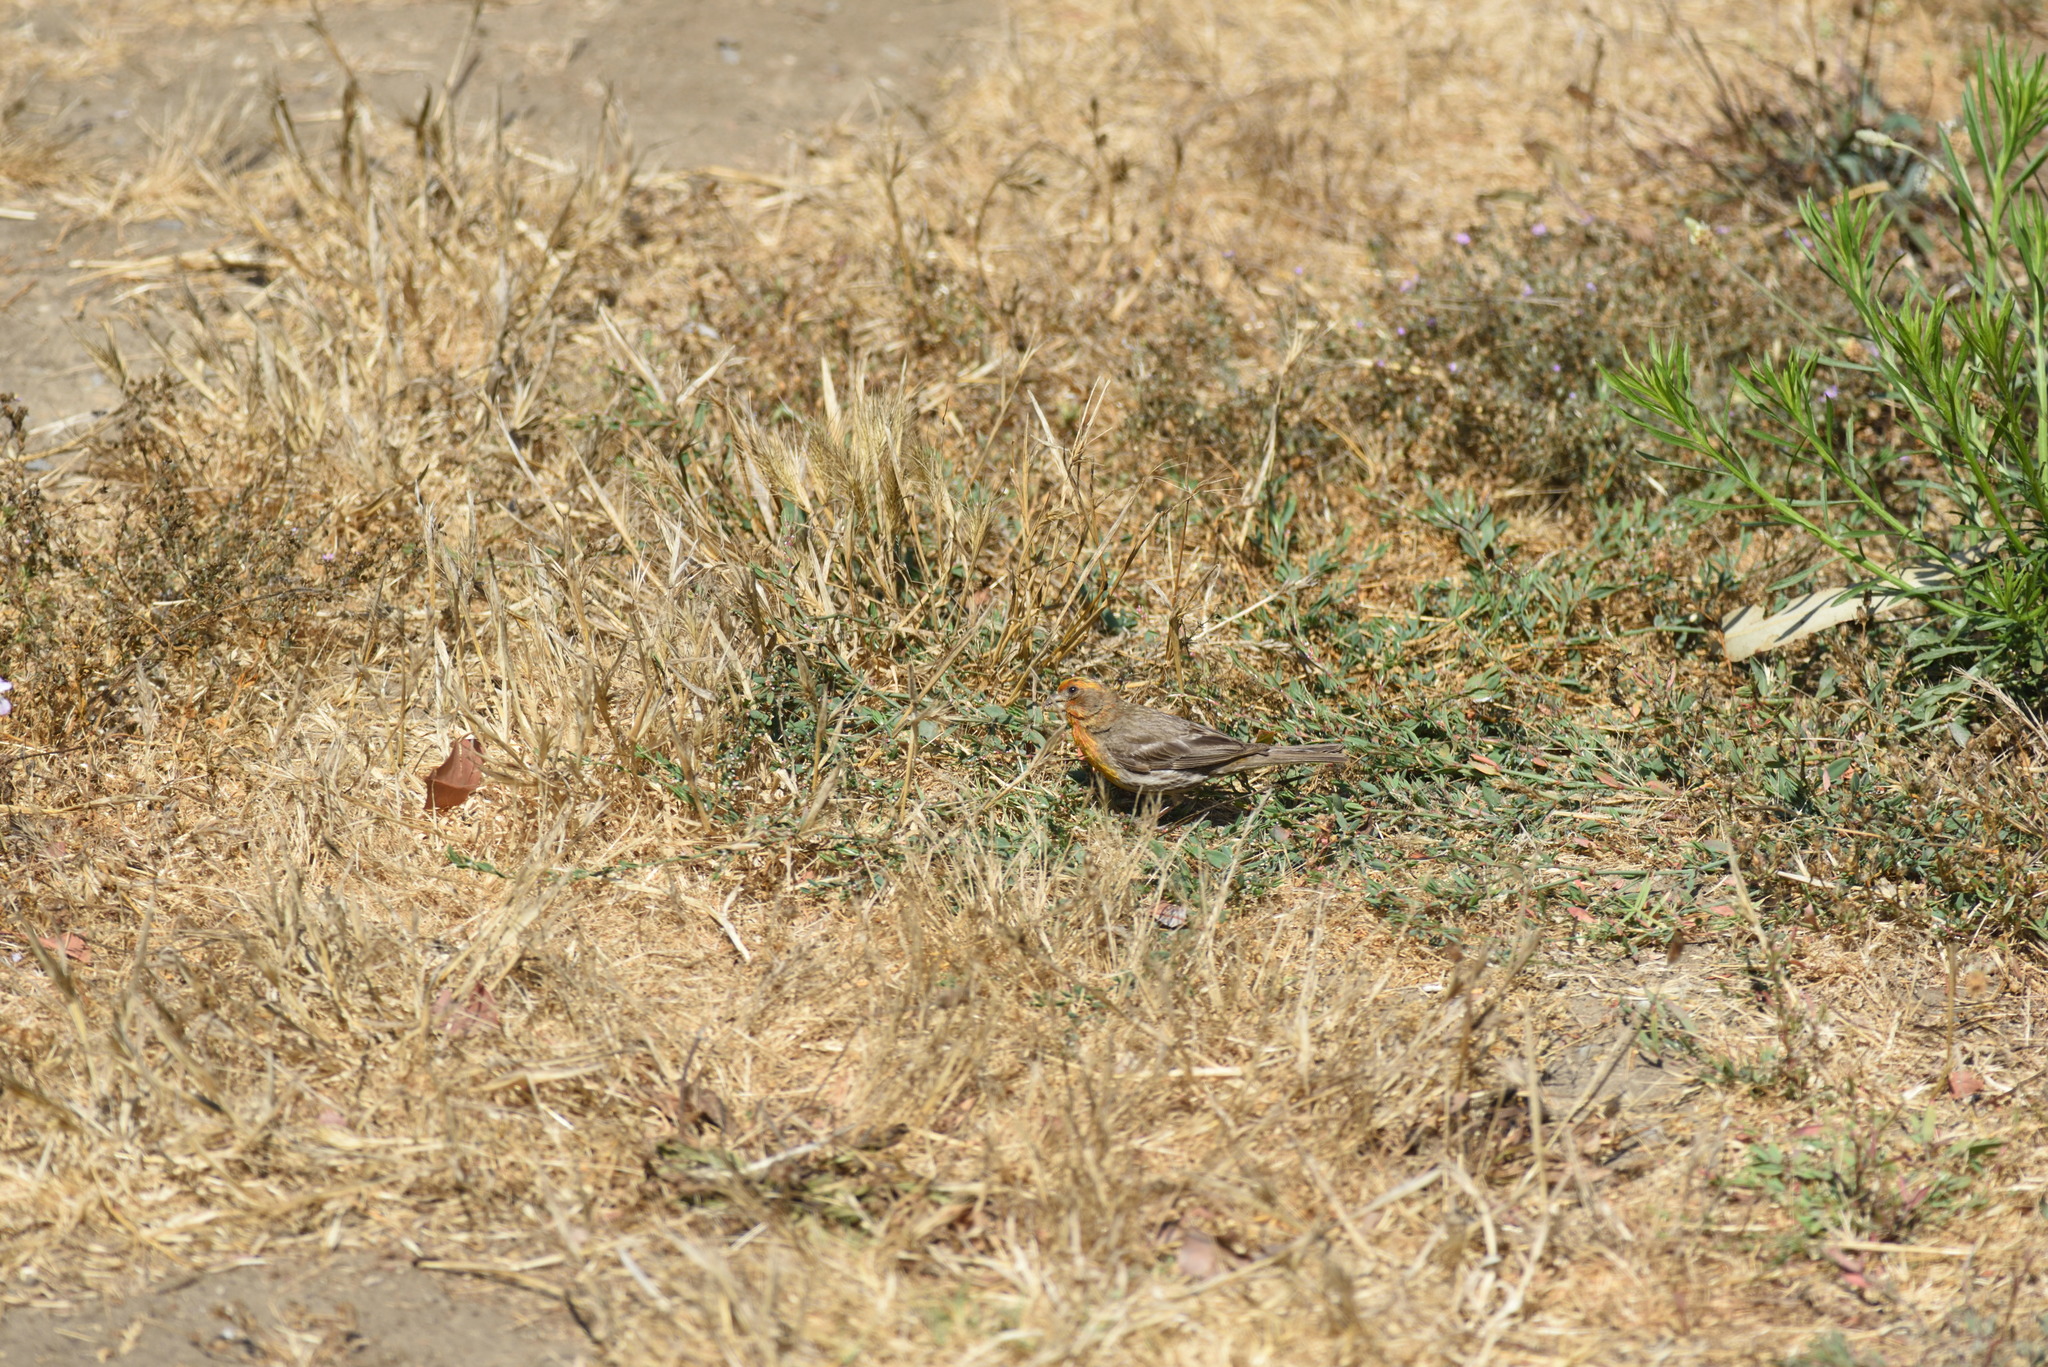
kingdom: Animalia
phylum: Chordata
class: Aves
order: Passeriformes
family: Fringillidae
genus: Haemorhous
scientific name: Haemorhous mexicanus
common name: House finch
